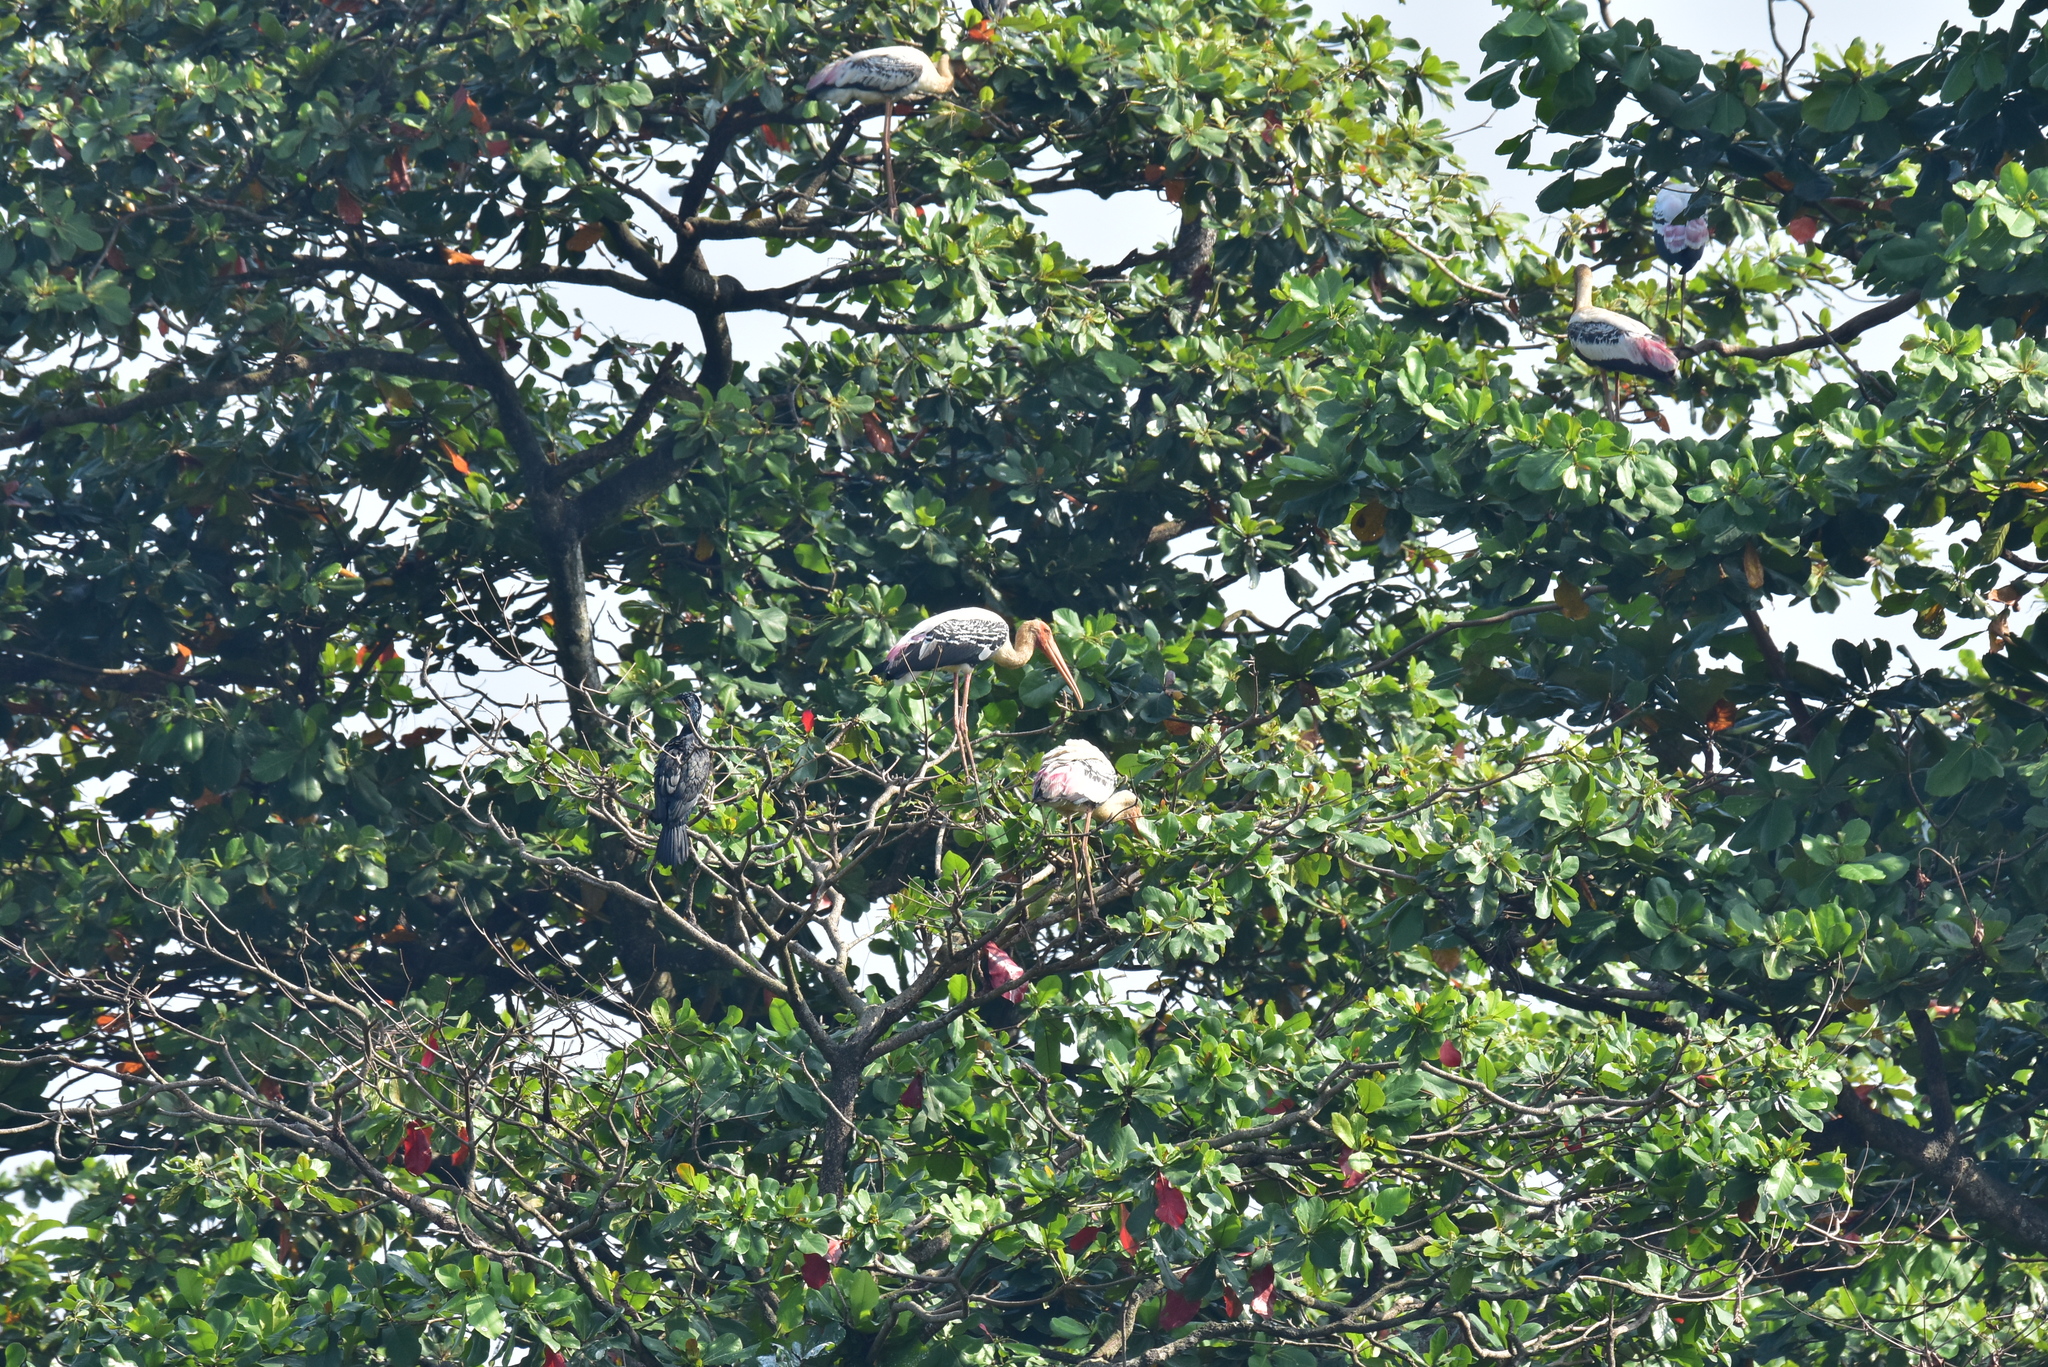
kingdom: Animalia
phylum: Chordata
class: Aves
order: Ciconiiformes
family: Ciconiidae
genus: Mycteria
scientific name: Mycteria leucocephala
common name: Painted stork
